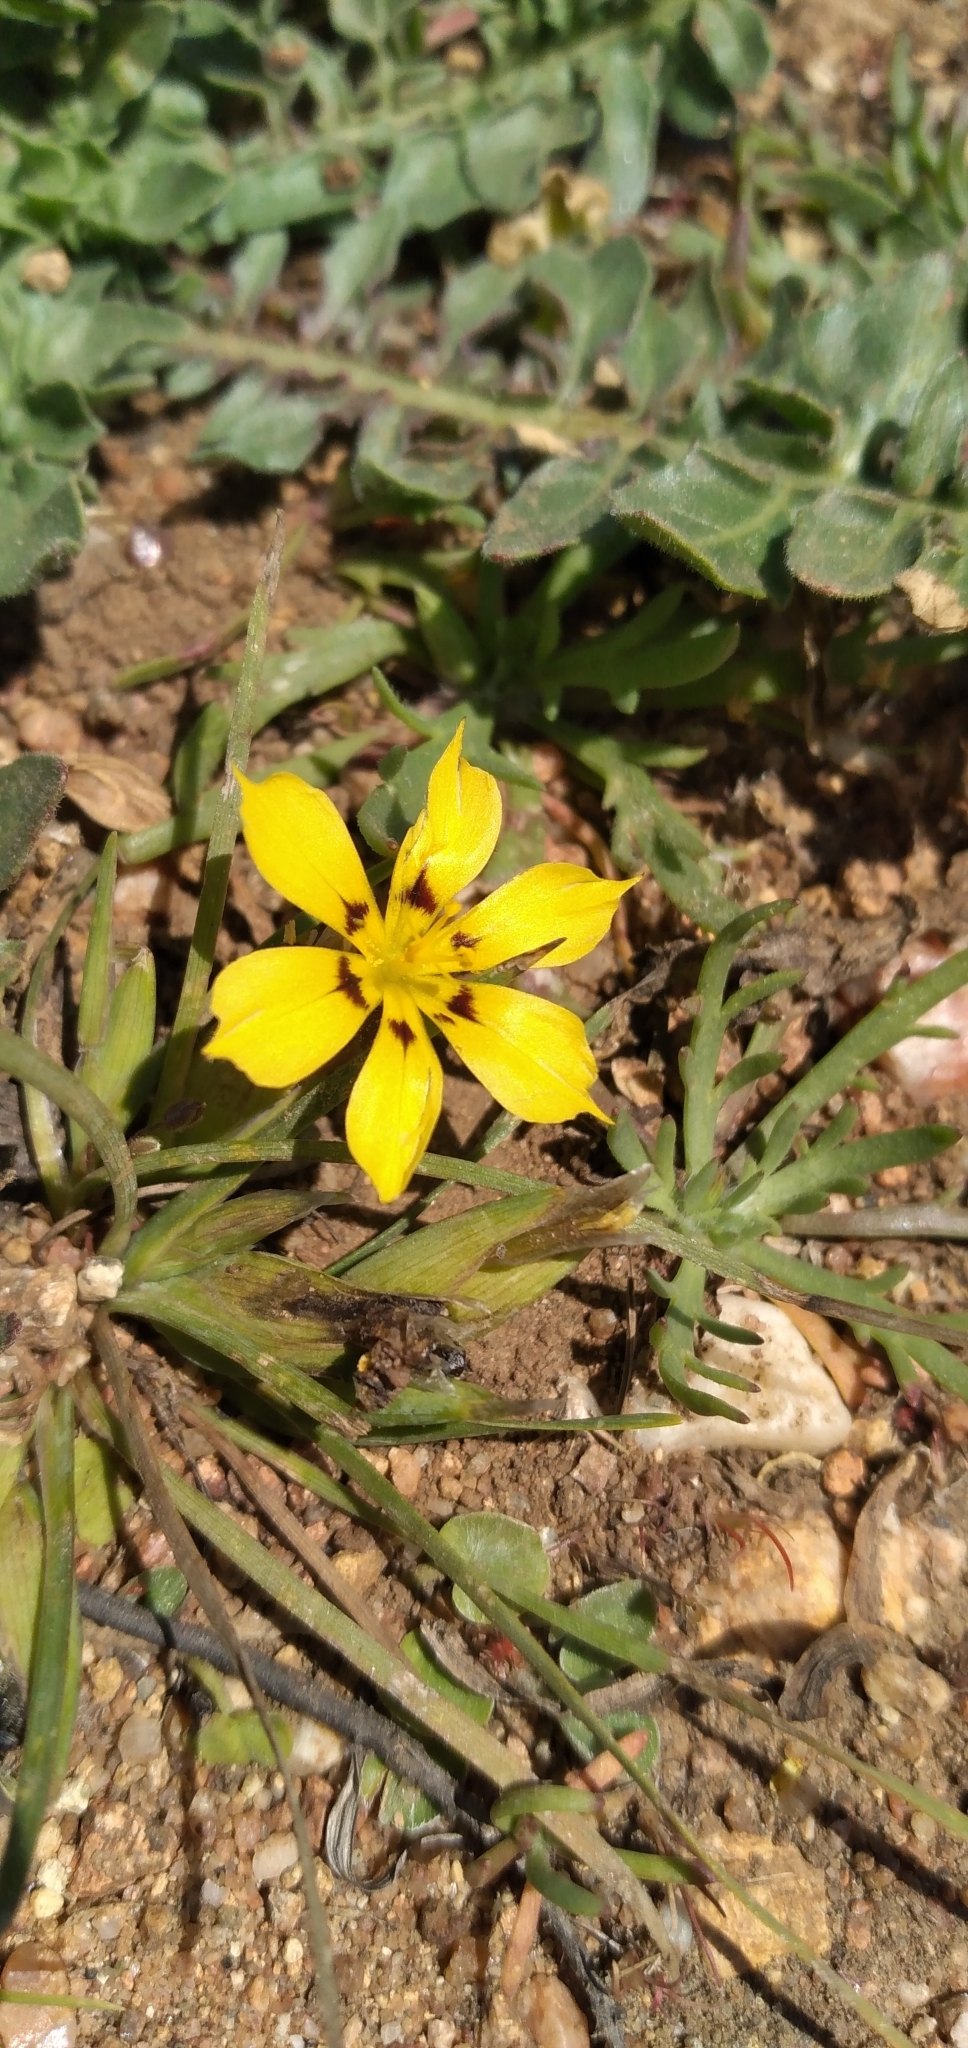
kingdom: Plantae
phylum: Tracheophyta
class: Liliopsida
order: Asparagales
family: Iridaceae
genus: Sisyrinchium
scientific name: Sisyrinchium graminifolium
